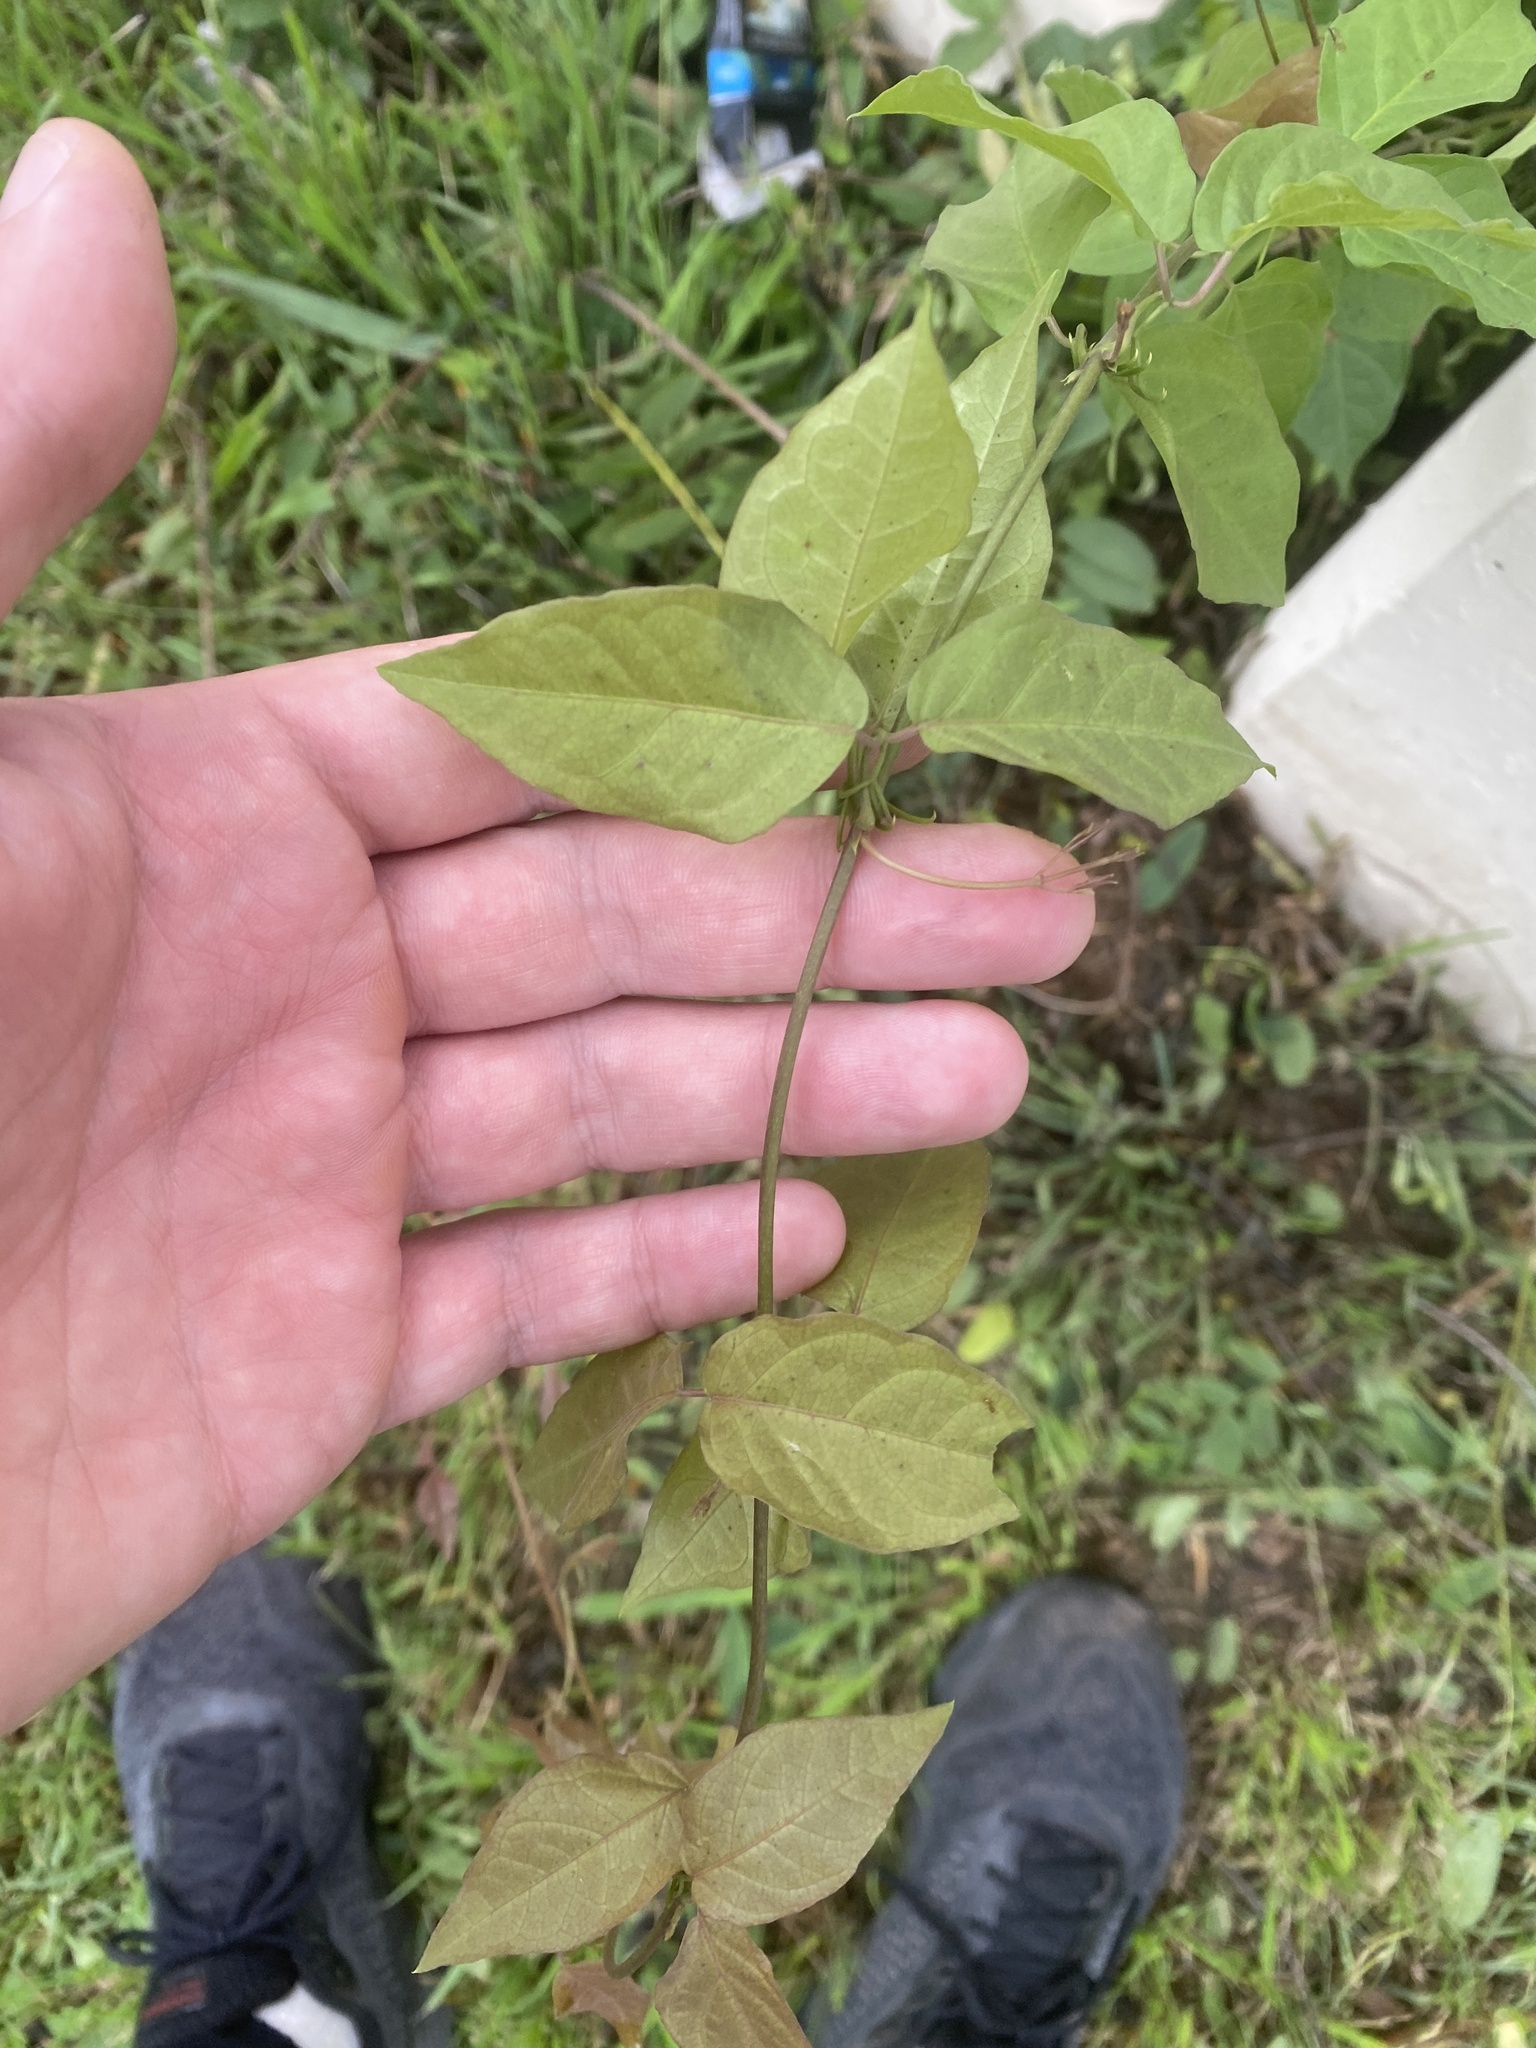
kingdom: Plantae
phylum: Tracheophyta
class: Magnoliopsida
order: Lamiales
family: Bignoniaceae
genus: Dolichandra
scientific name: Dolichandra unguis-cati
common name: Catclaw vine
